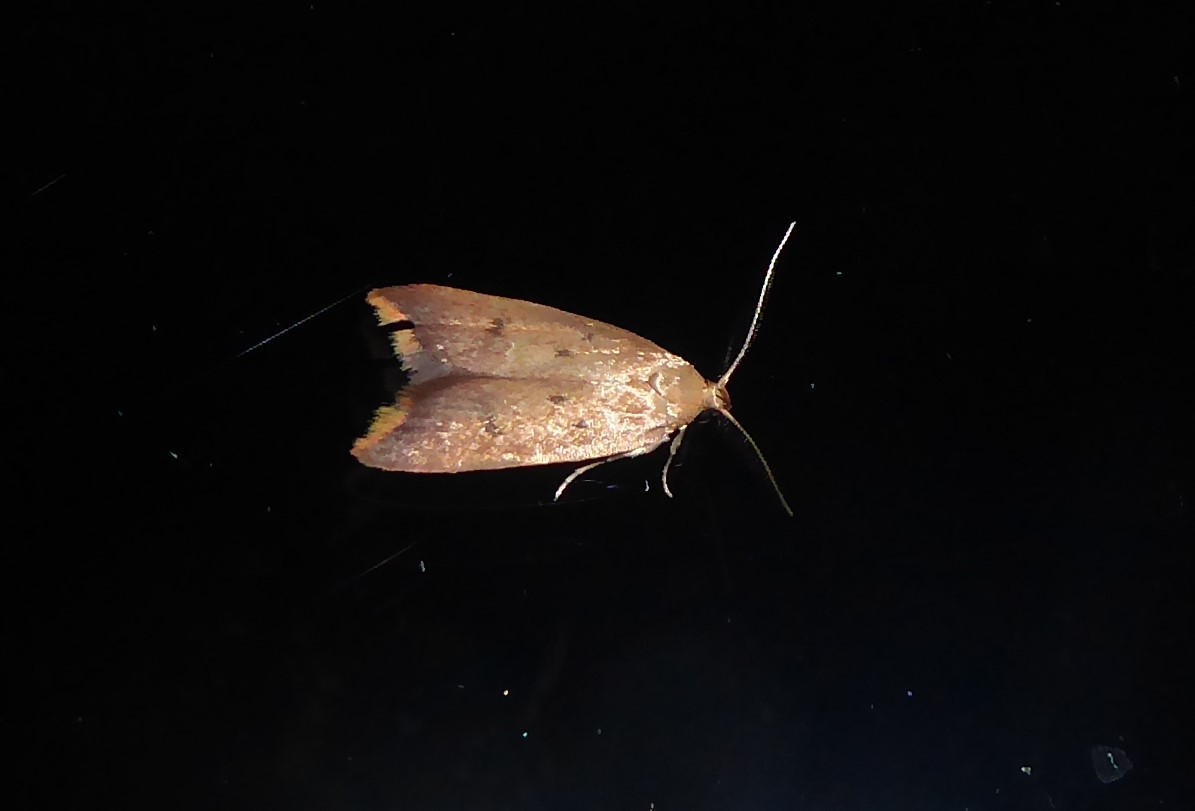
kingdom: Animalia
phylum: Arthropoda
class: Insecta
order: Lepidoptera
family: Oecophoridae
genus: Tachystola
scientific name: Tachystola acroxantha
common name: Ruddy streak
